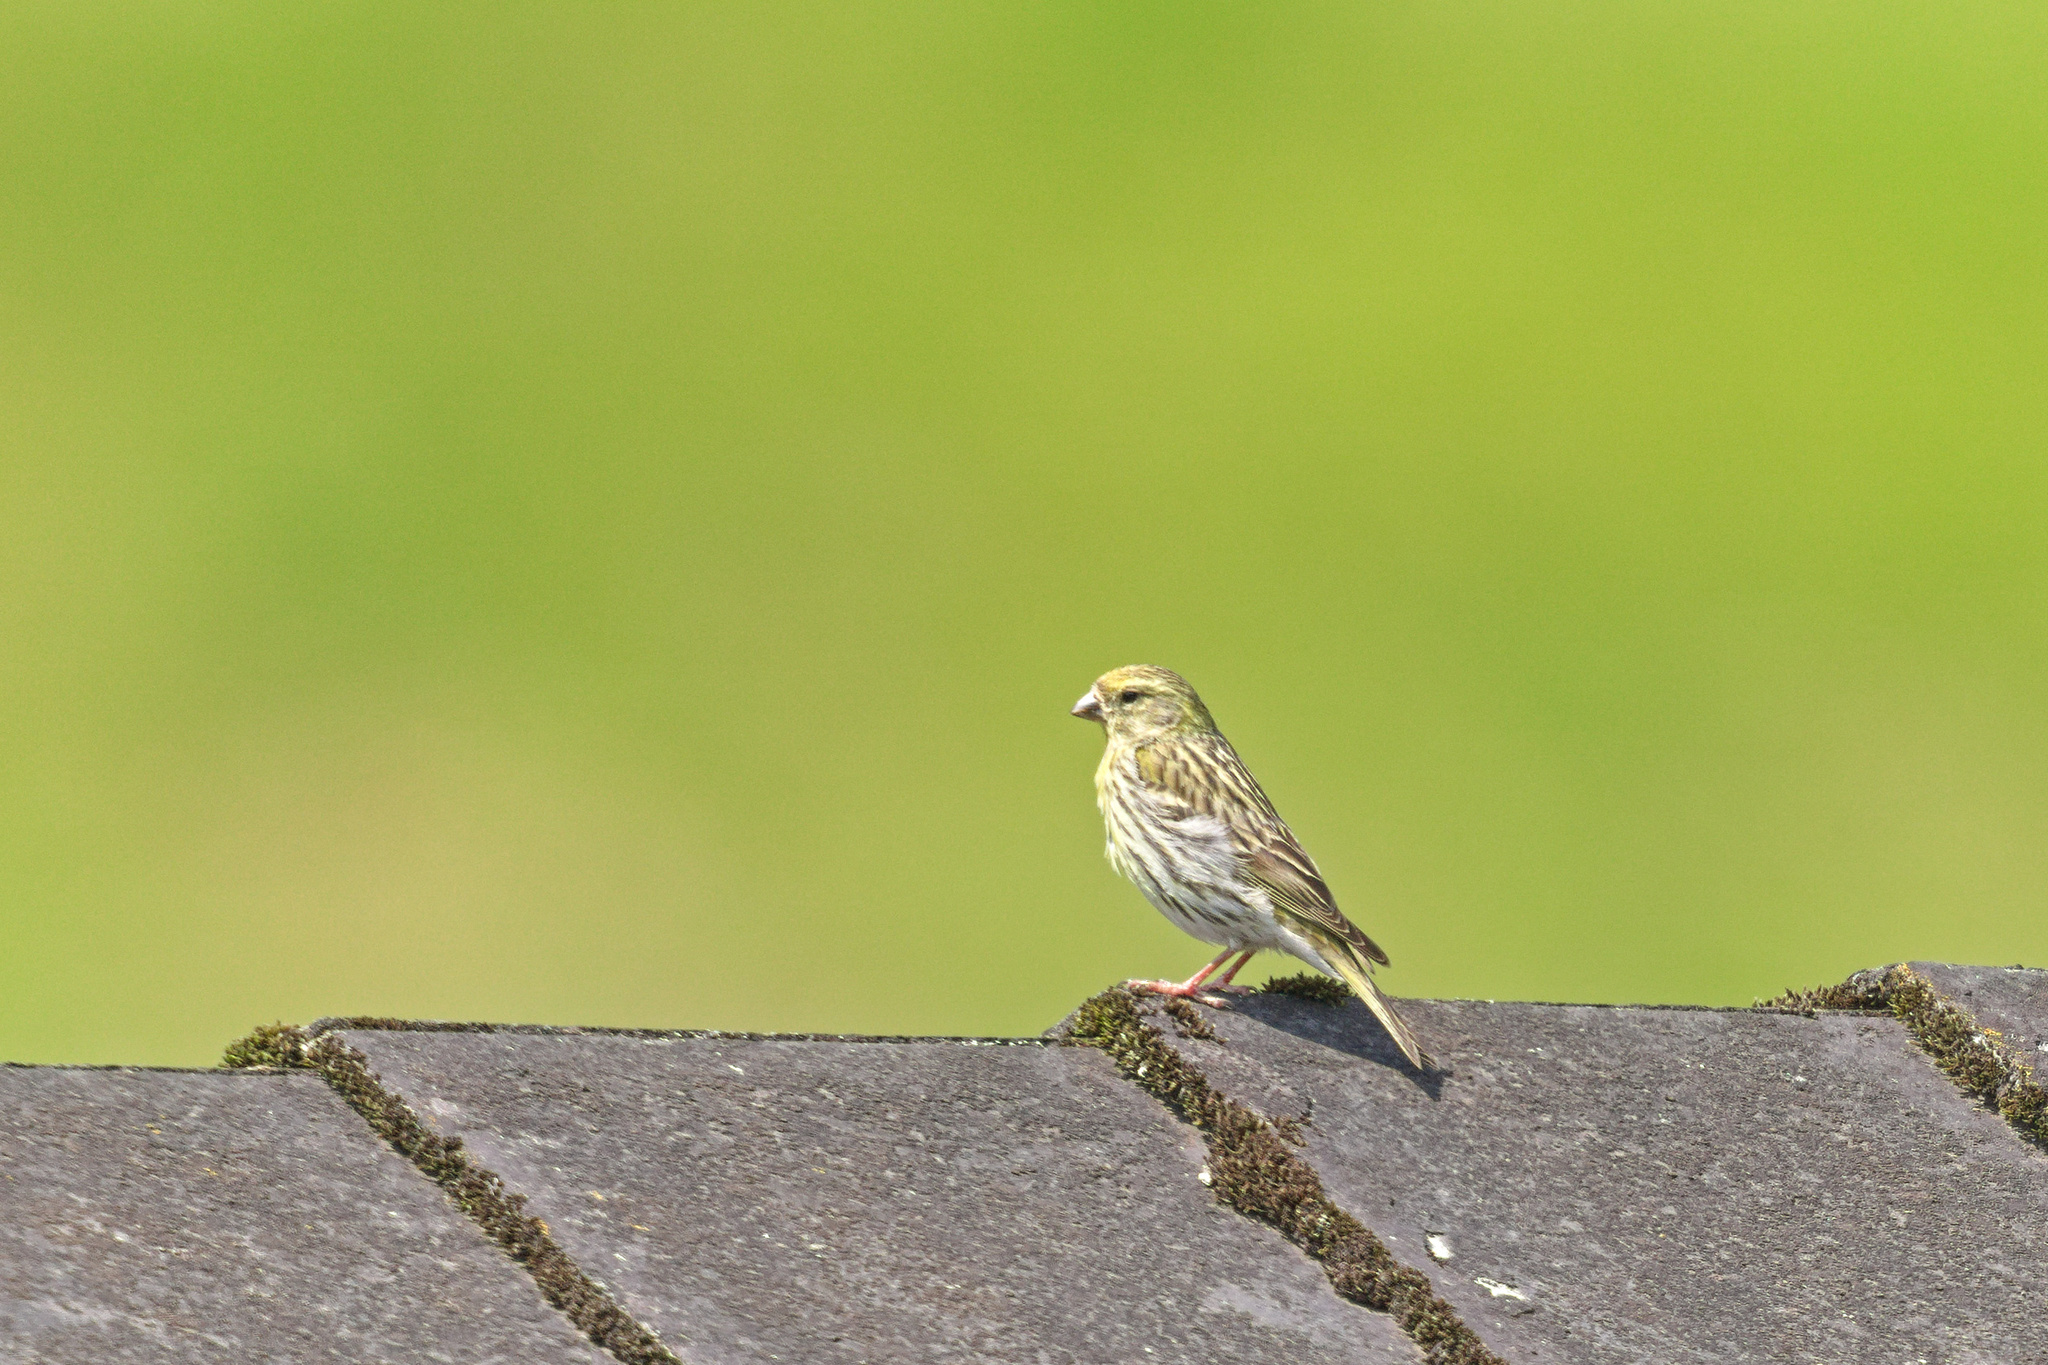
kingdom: Animalia
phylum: Chordata
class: Aves
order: Passeriformes
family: Fringillidae
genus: Serinus
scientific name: Serinus serinus
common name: European serin
